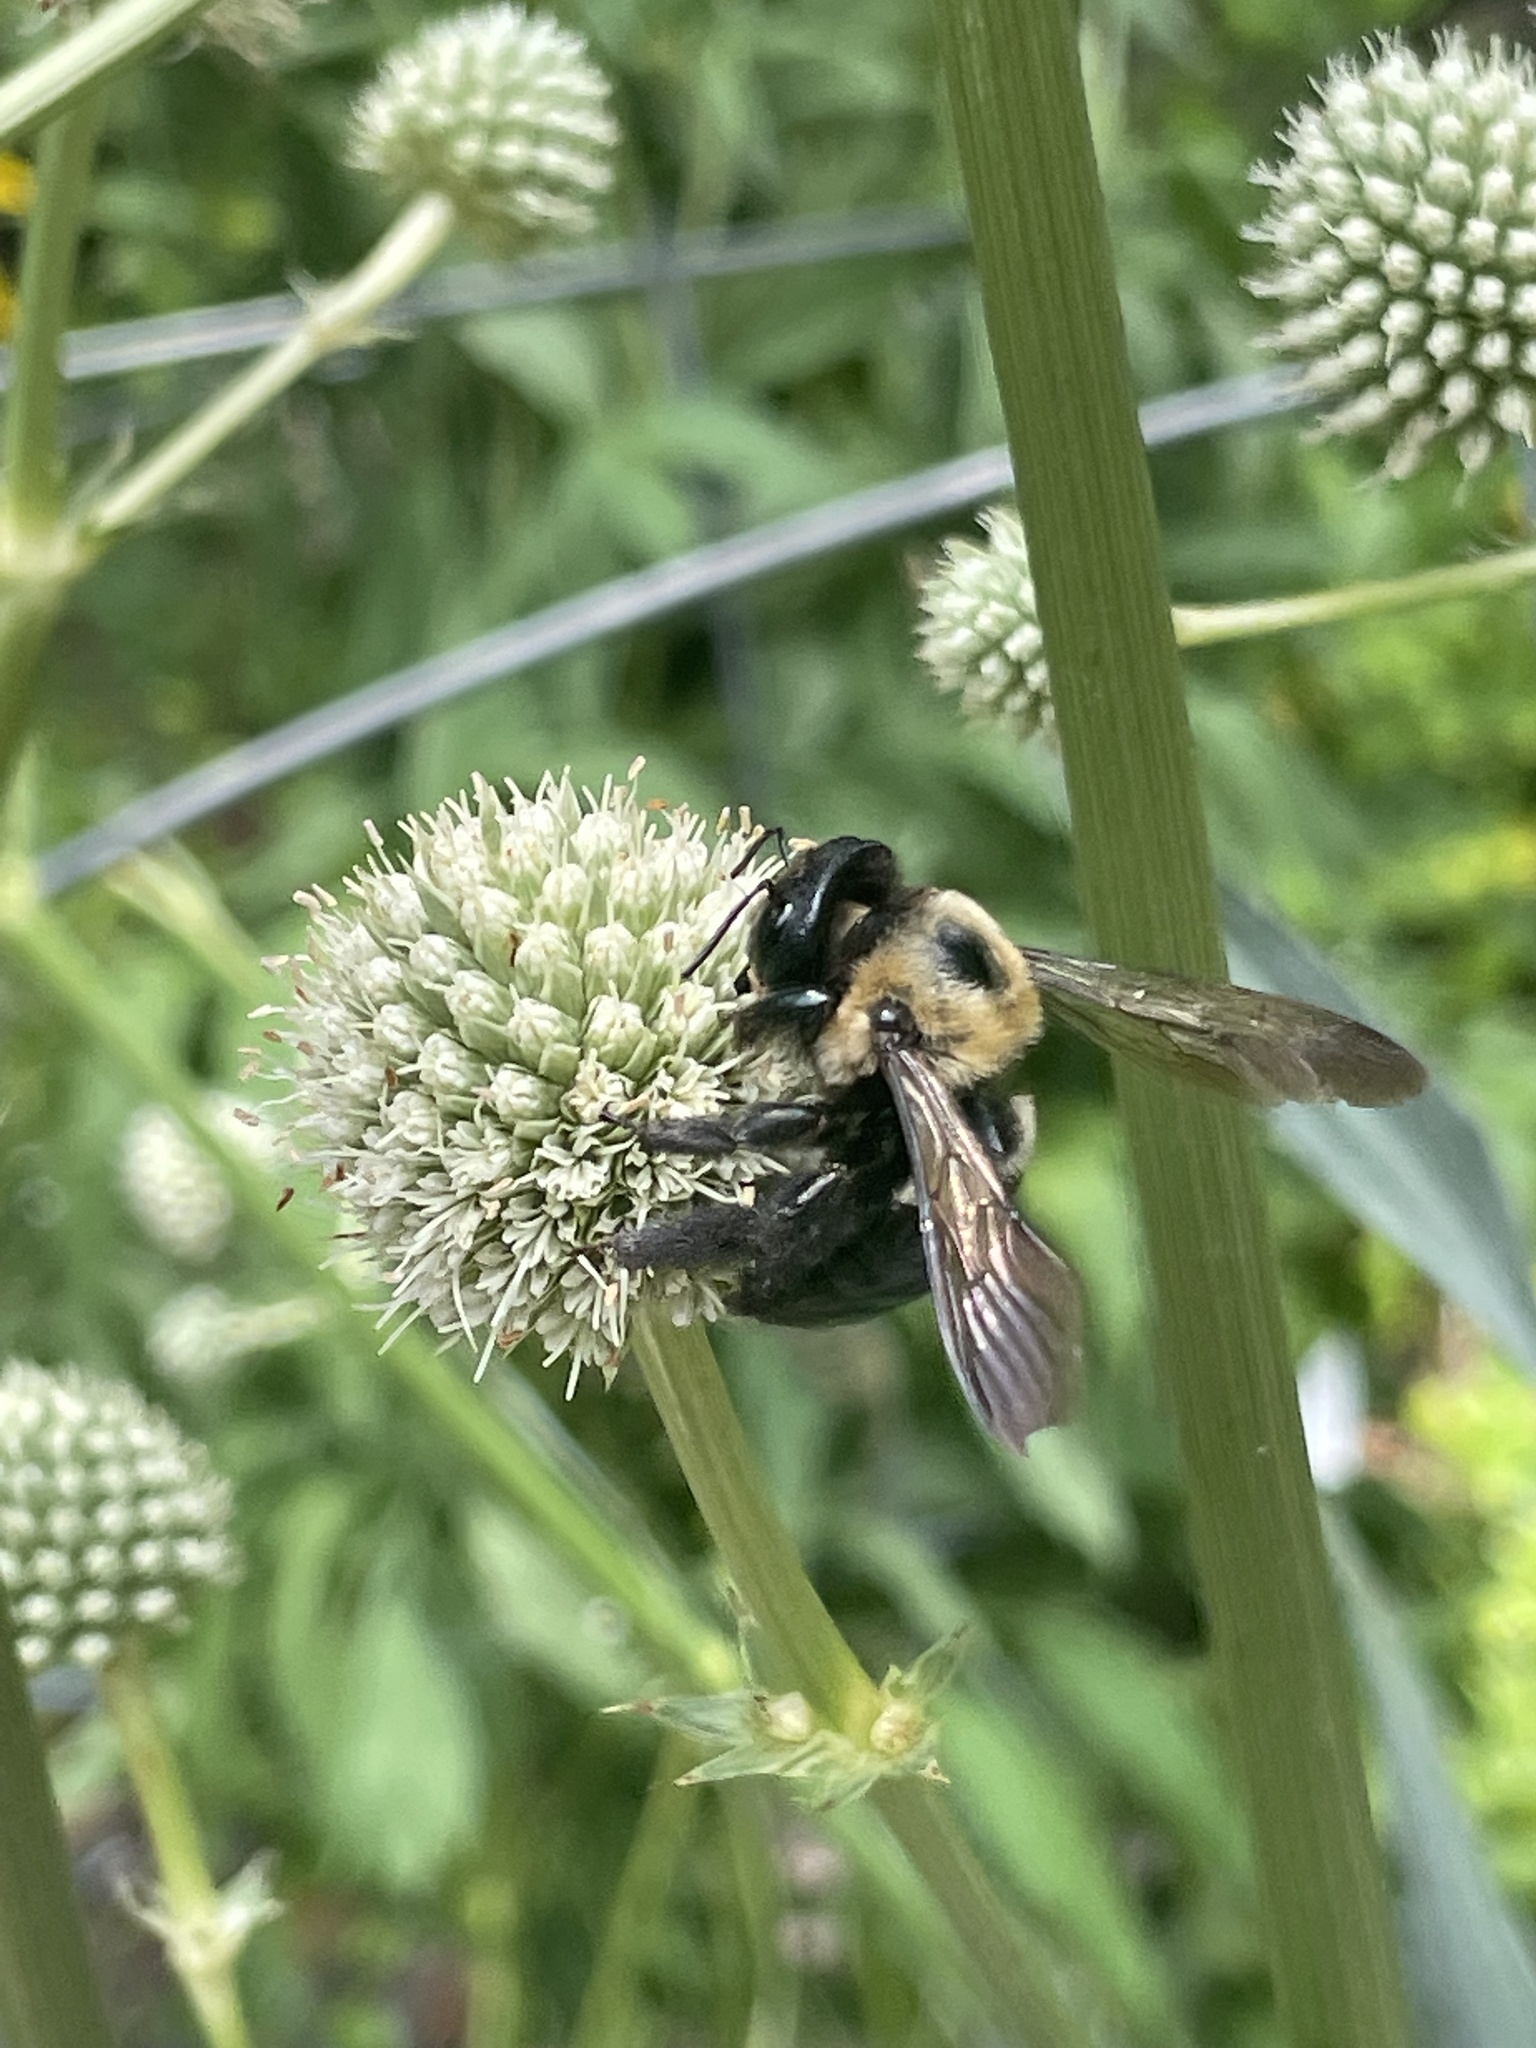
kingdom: Animalia
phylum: Arthropoda
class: Insecta
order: Hymenoptera
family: Apidae
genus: Xylocopa
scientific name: Xylocopa virginica
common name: Carpenter bee
